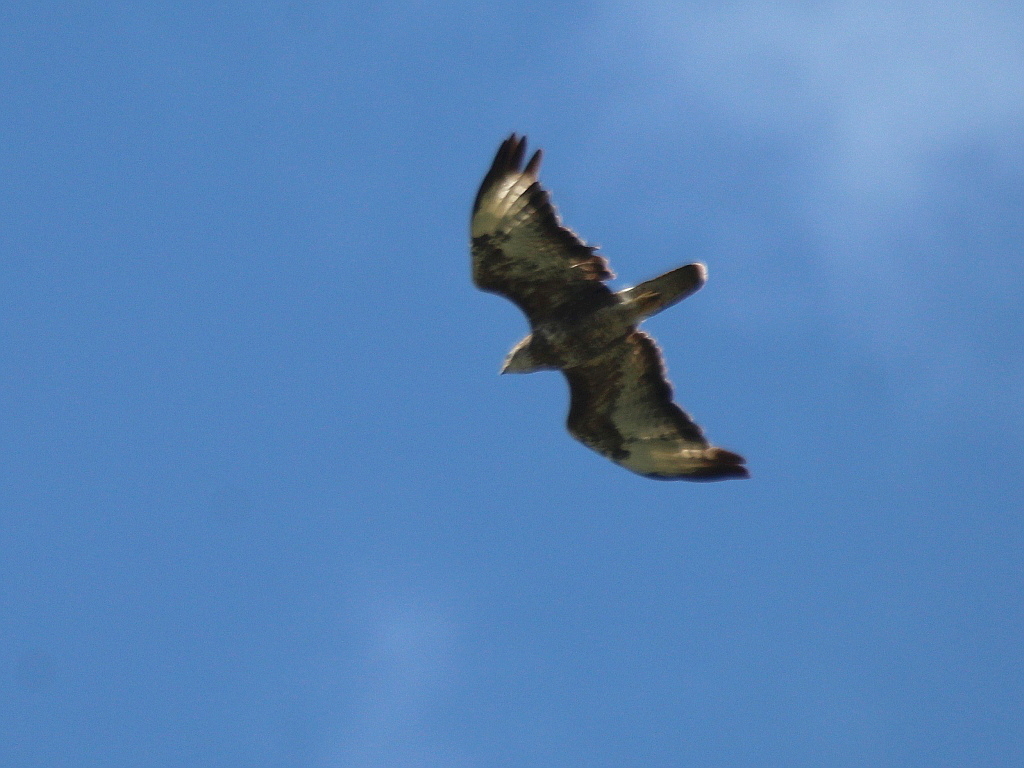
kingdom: Animalia
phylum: Chordata
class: Aves
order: Accipitriformes
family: Accipitridae
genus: Buteo
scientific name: Buteo buteo
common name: Common buzzard
